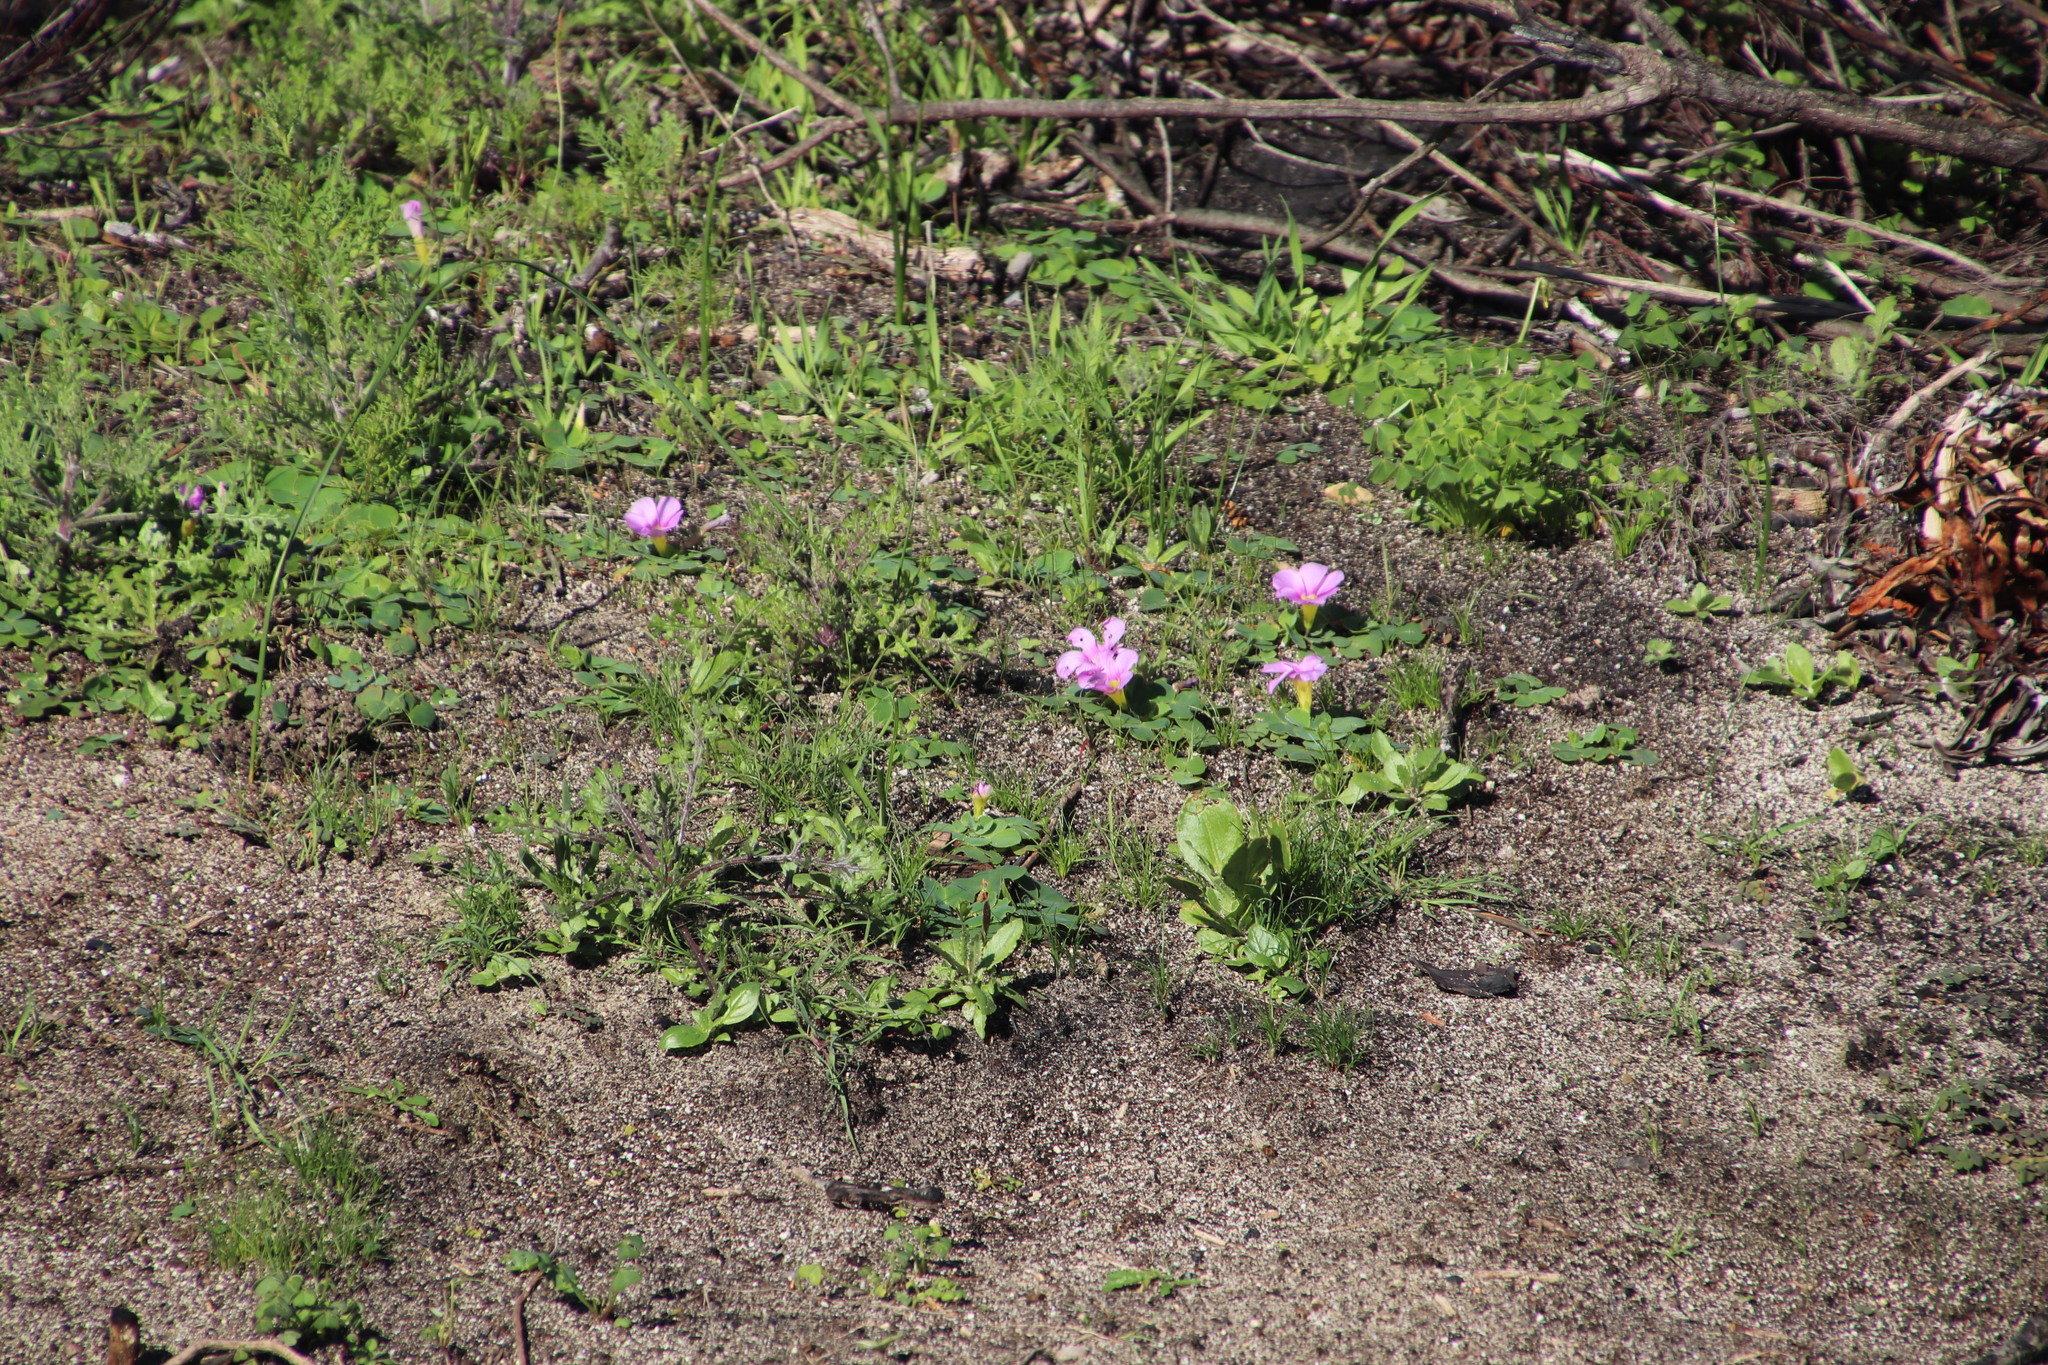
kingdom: Plantae
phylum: Tracheophyta
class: Magnoliopsida
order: Oxalidales
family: Oxalidaceae
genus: Oxalis
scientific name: Oxalis purpurea
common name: Purple woodsorrel
